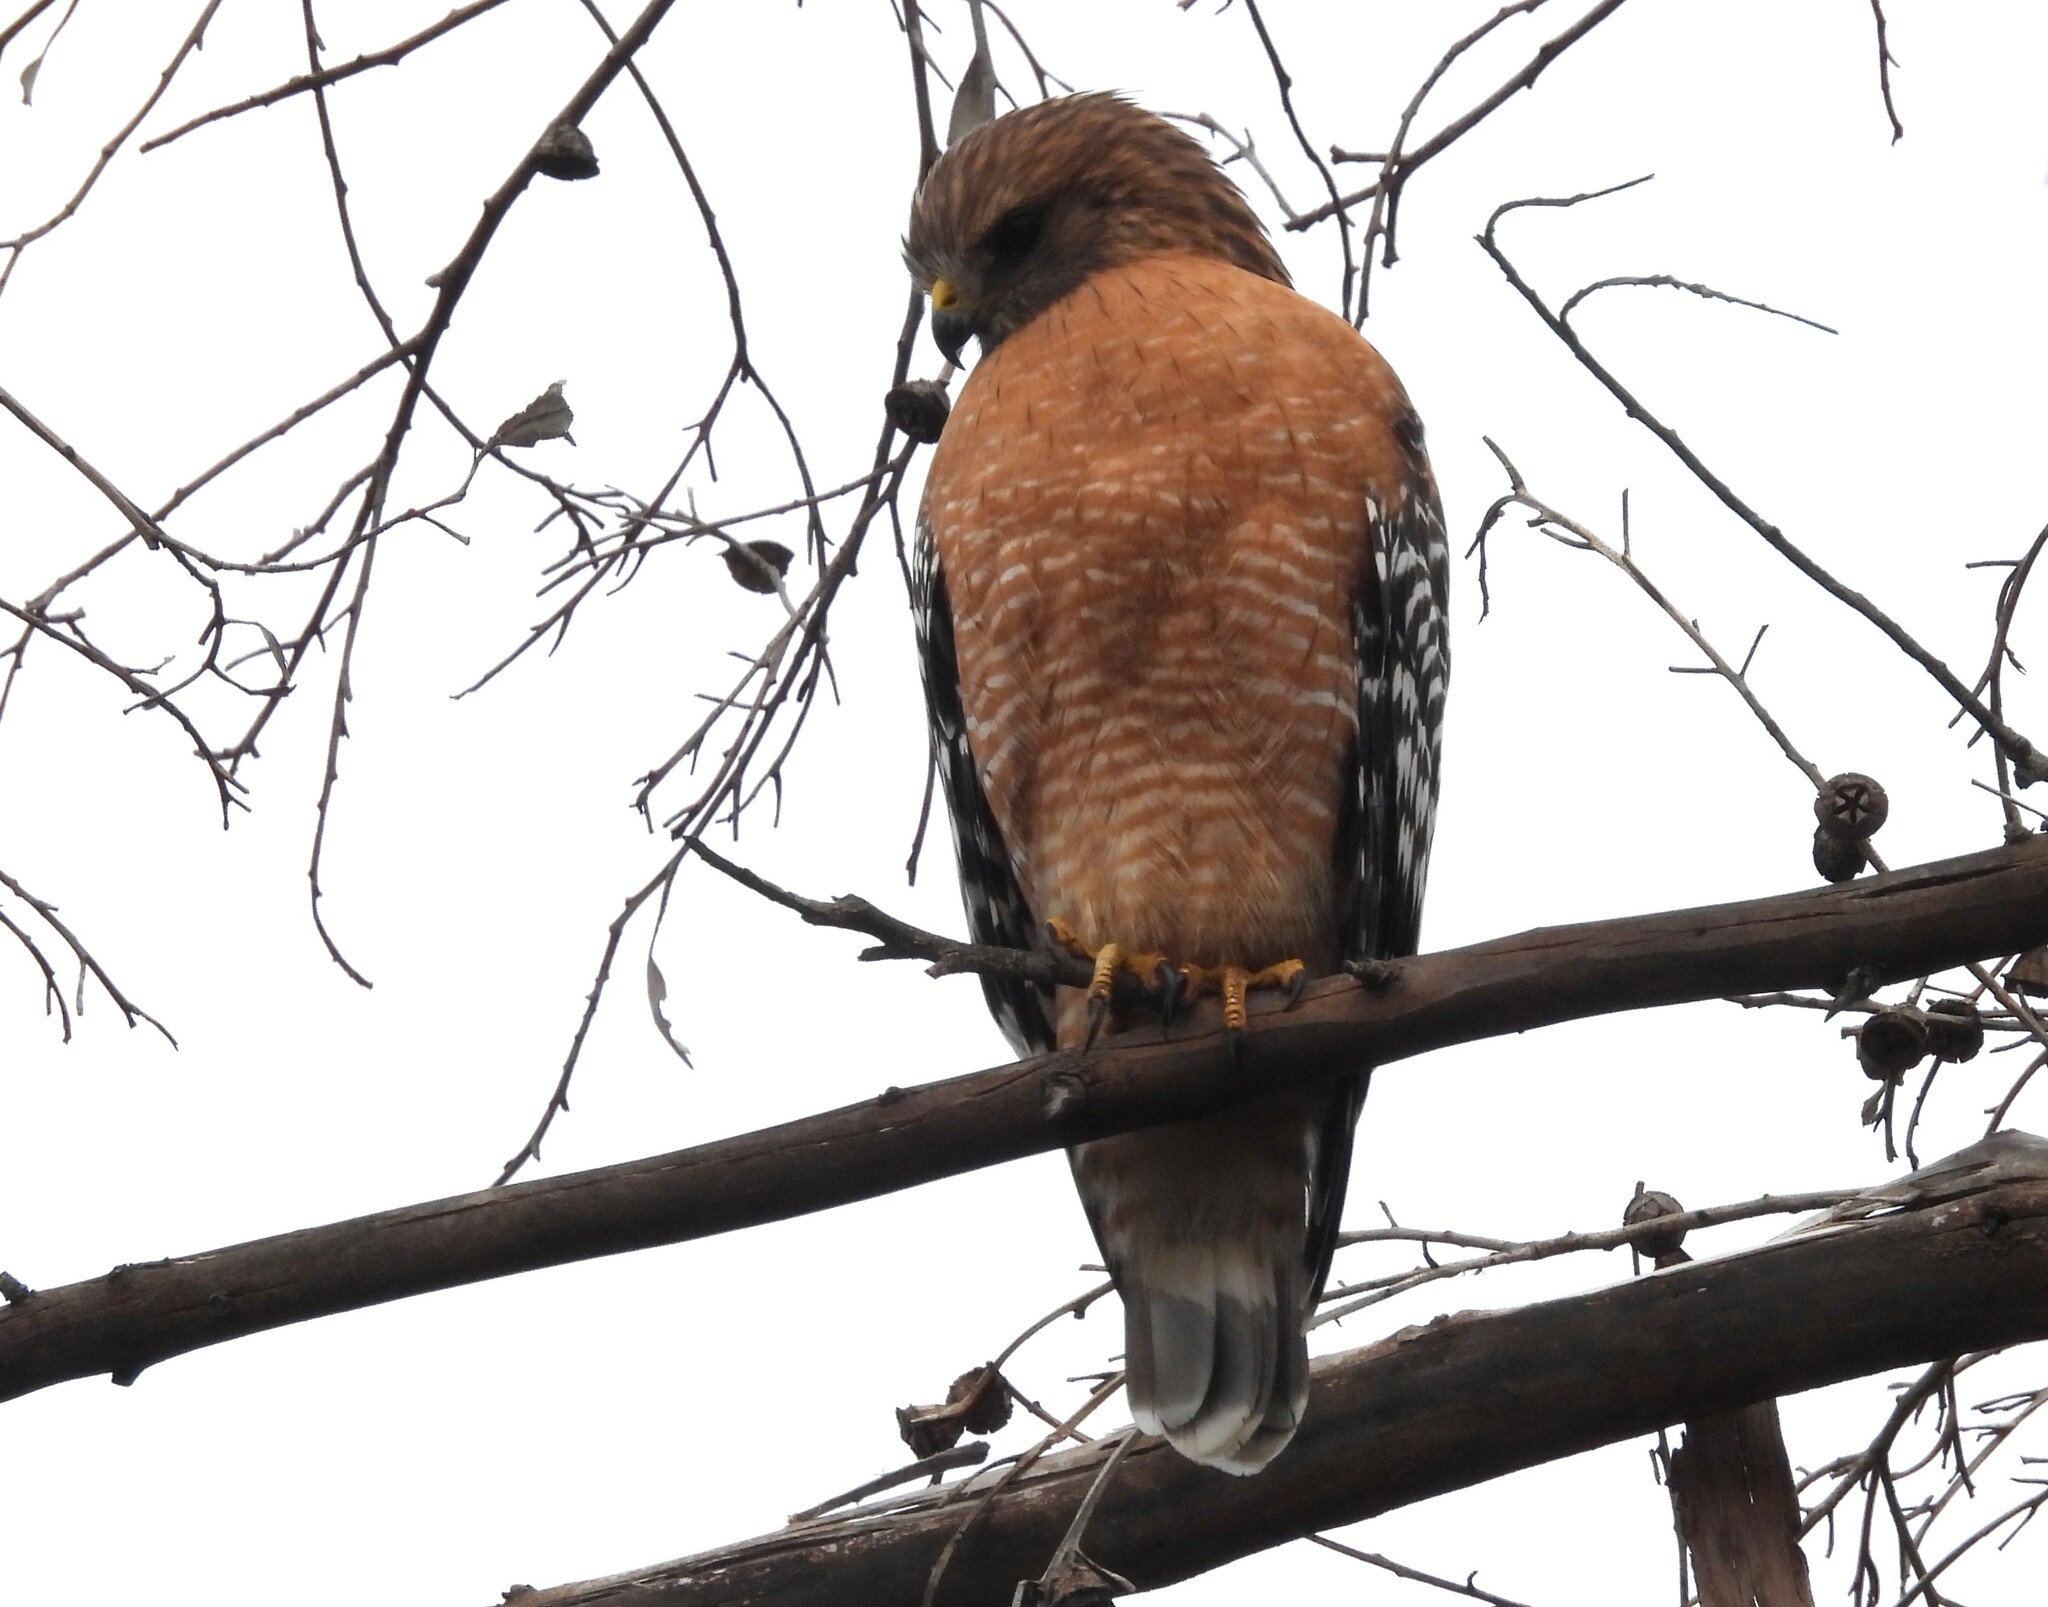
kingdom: Animalia
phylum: Chordata
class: Aves
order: Accipitriformes
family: Accipitridae
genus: Buteo
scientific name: Buteo lineatus
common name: Red-shouldered hawk
